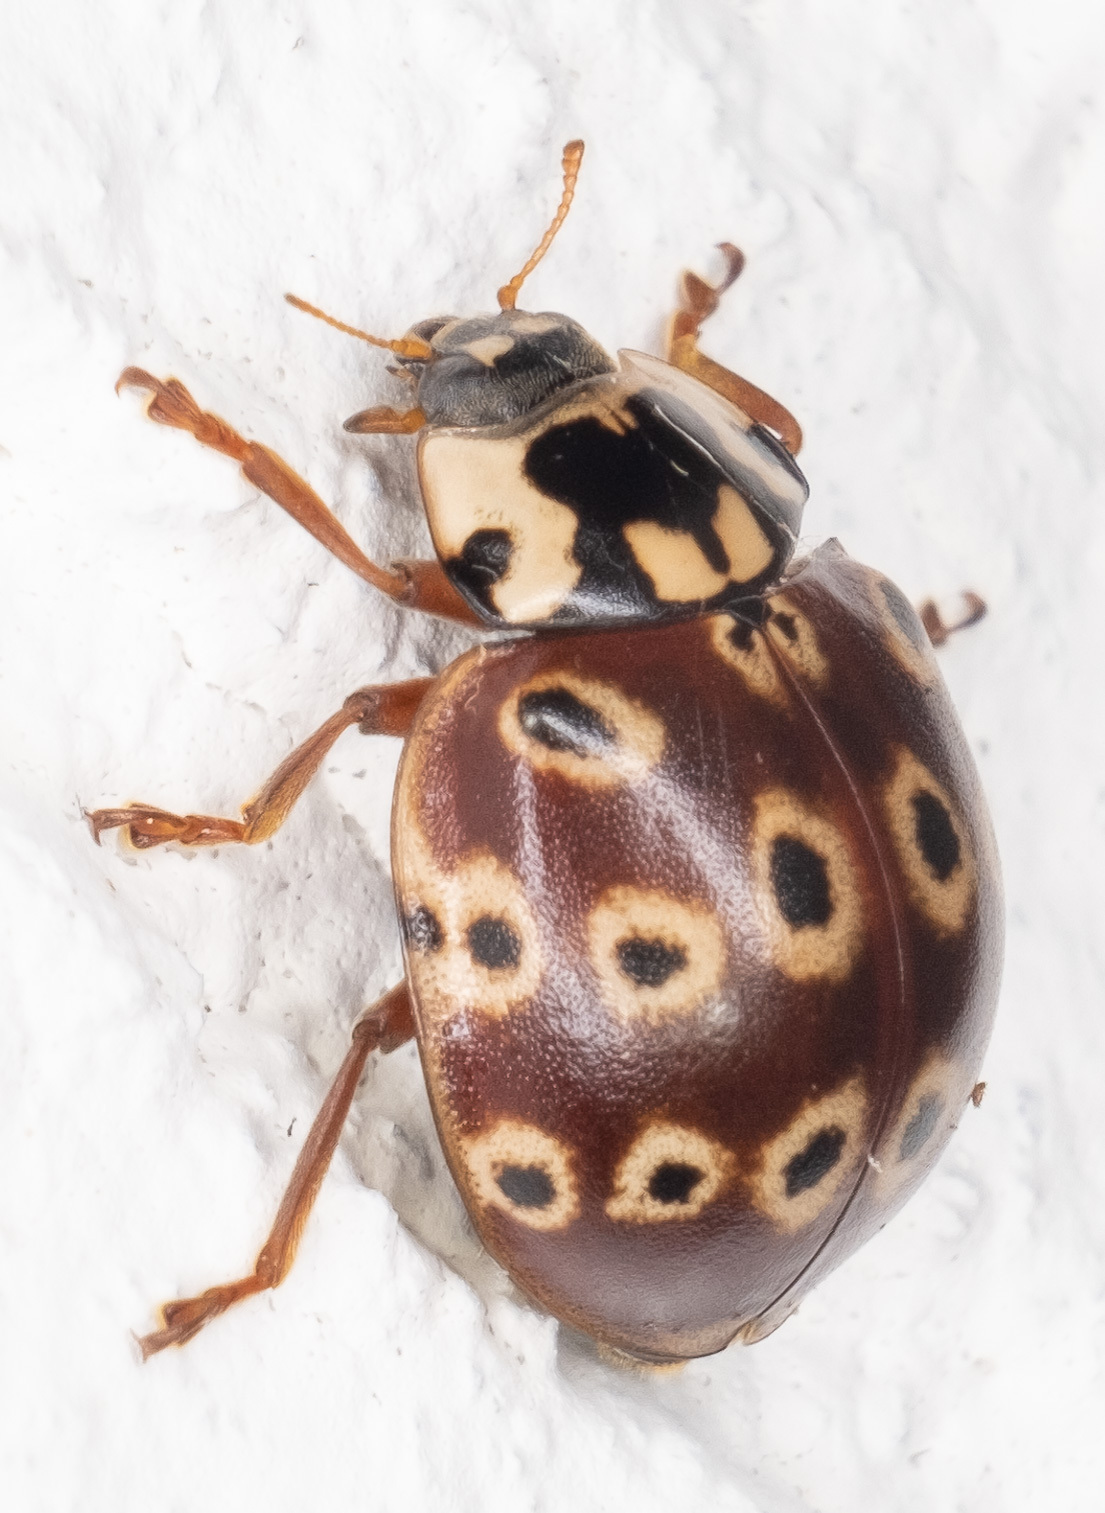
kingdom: Animalia
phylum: Arthropoda
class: Insecta
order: Coleoptera
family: Coccinellidae
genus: Anatis
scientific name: Anatis mali
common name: Eye-spotted lady beetle
